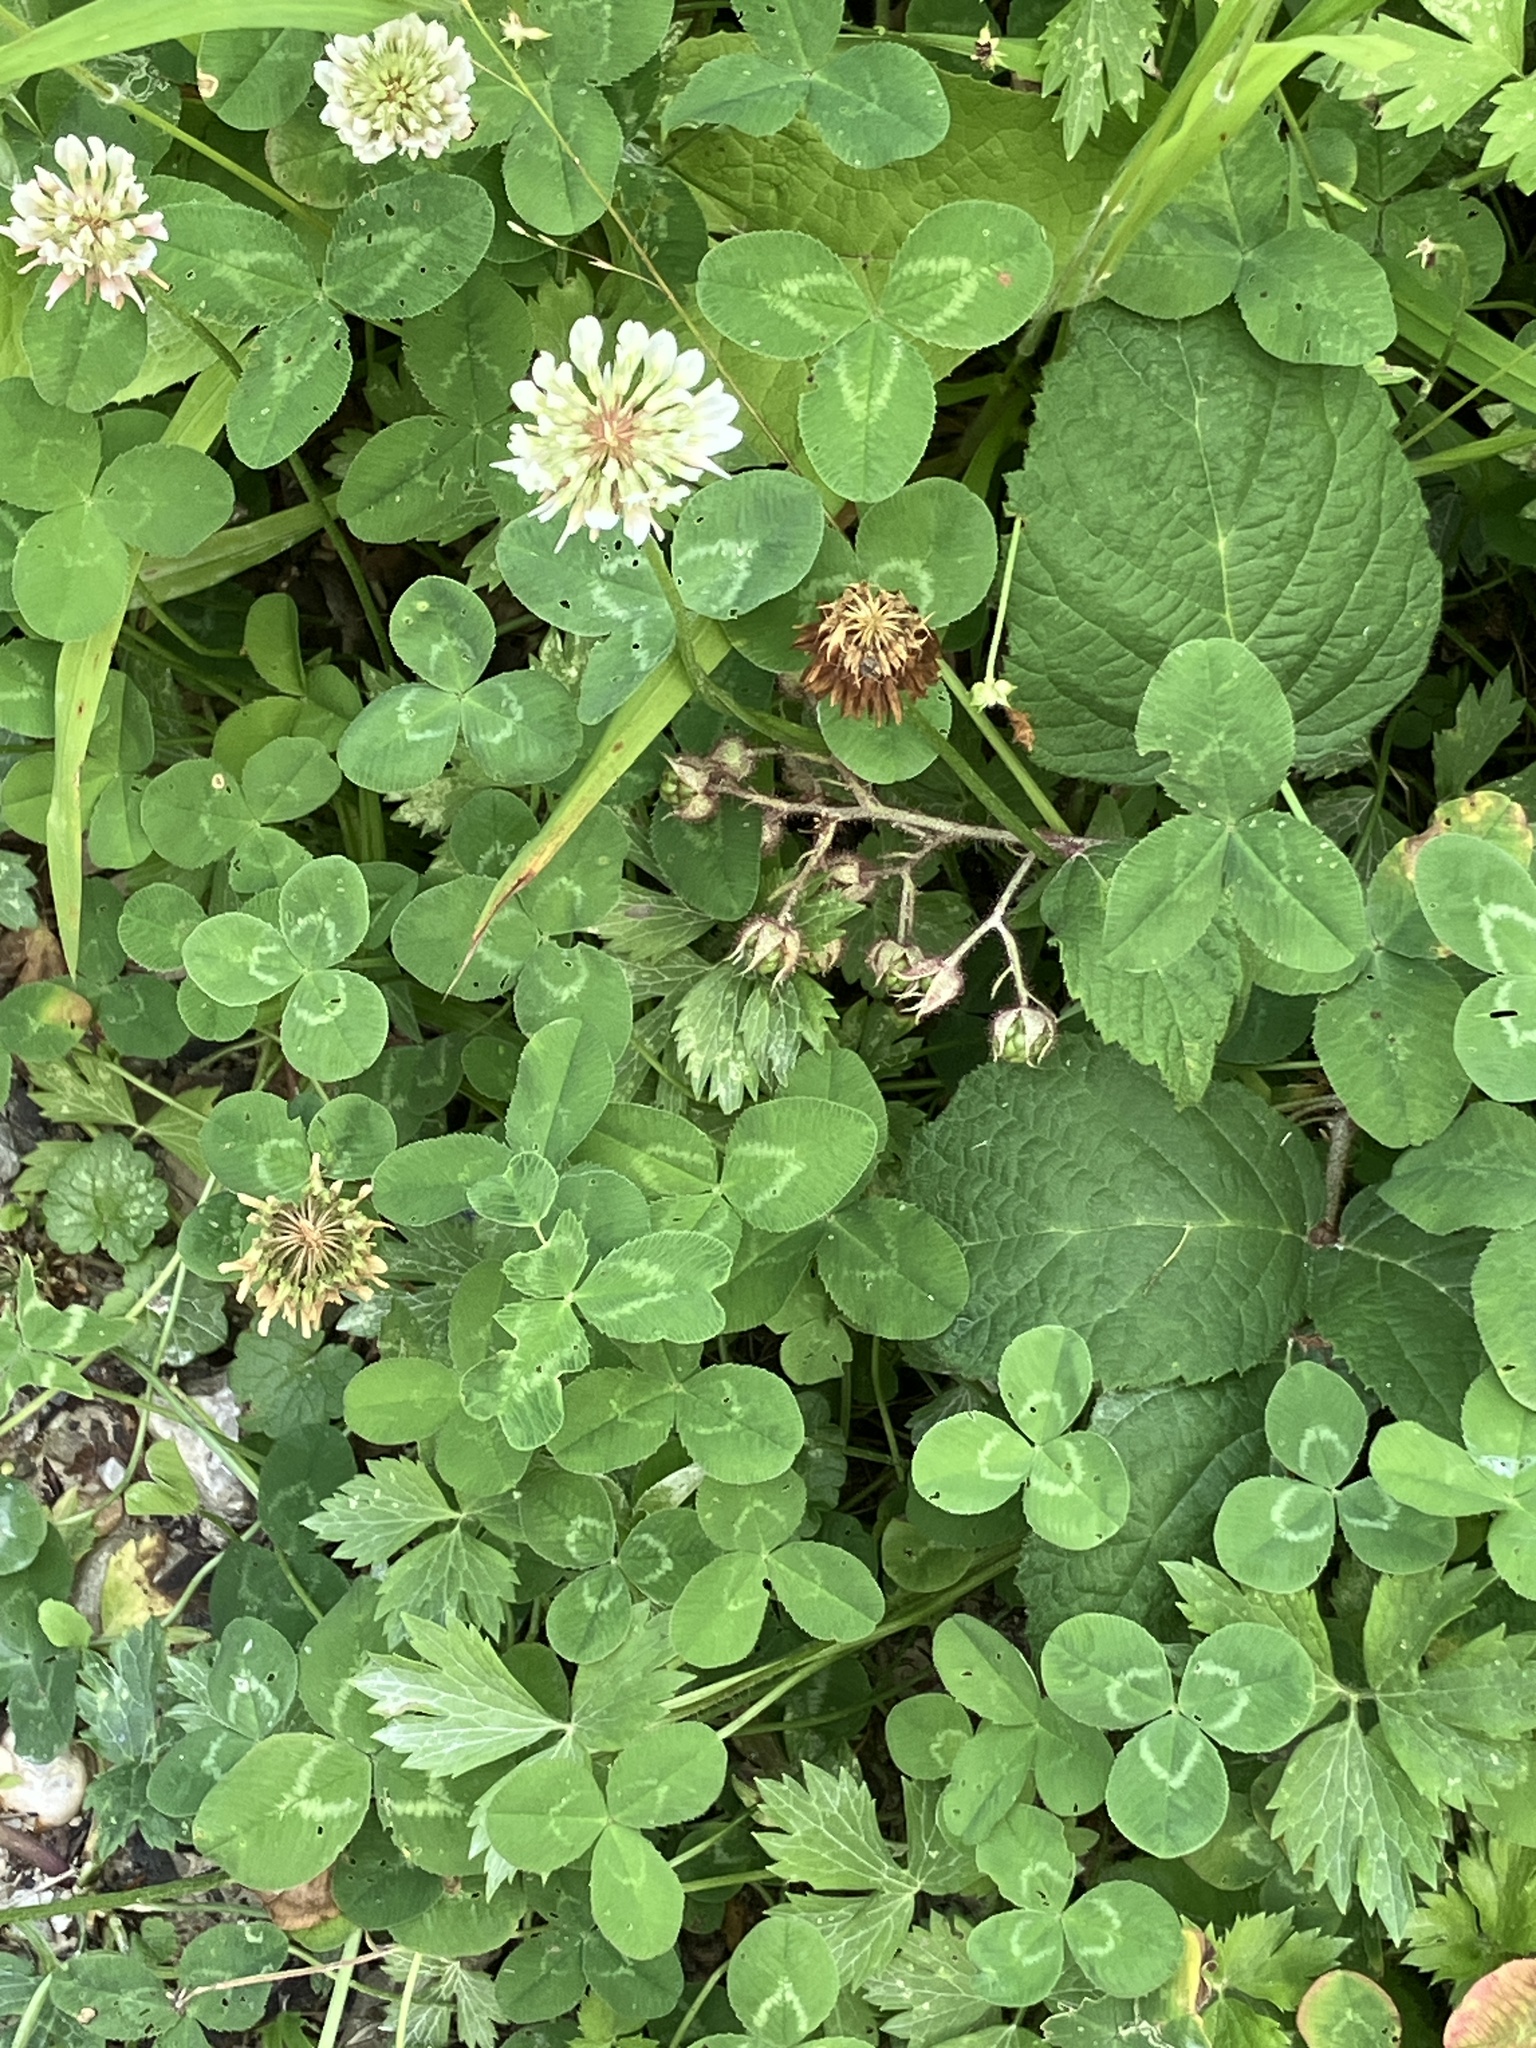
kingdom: Plantae
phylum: Tracheophyta
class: Magnoliopsida
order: Fabales
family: Fabaceae
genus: Trifolium
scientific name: Trifolium repens
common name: White clover
